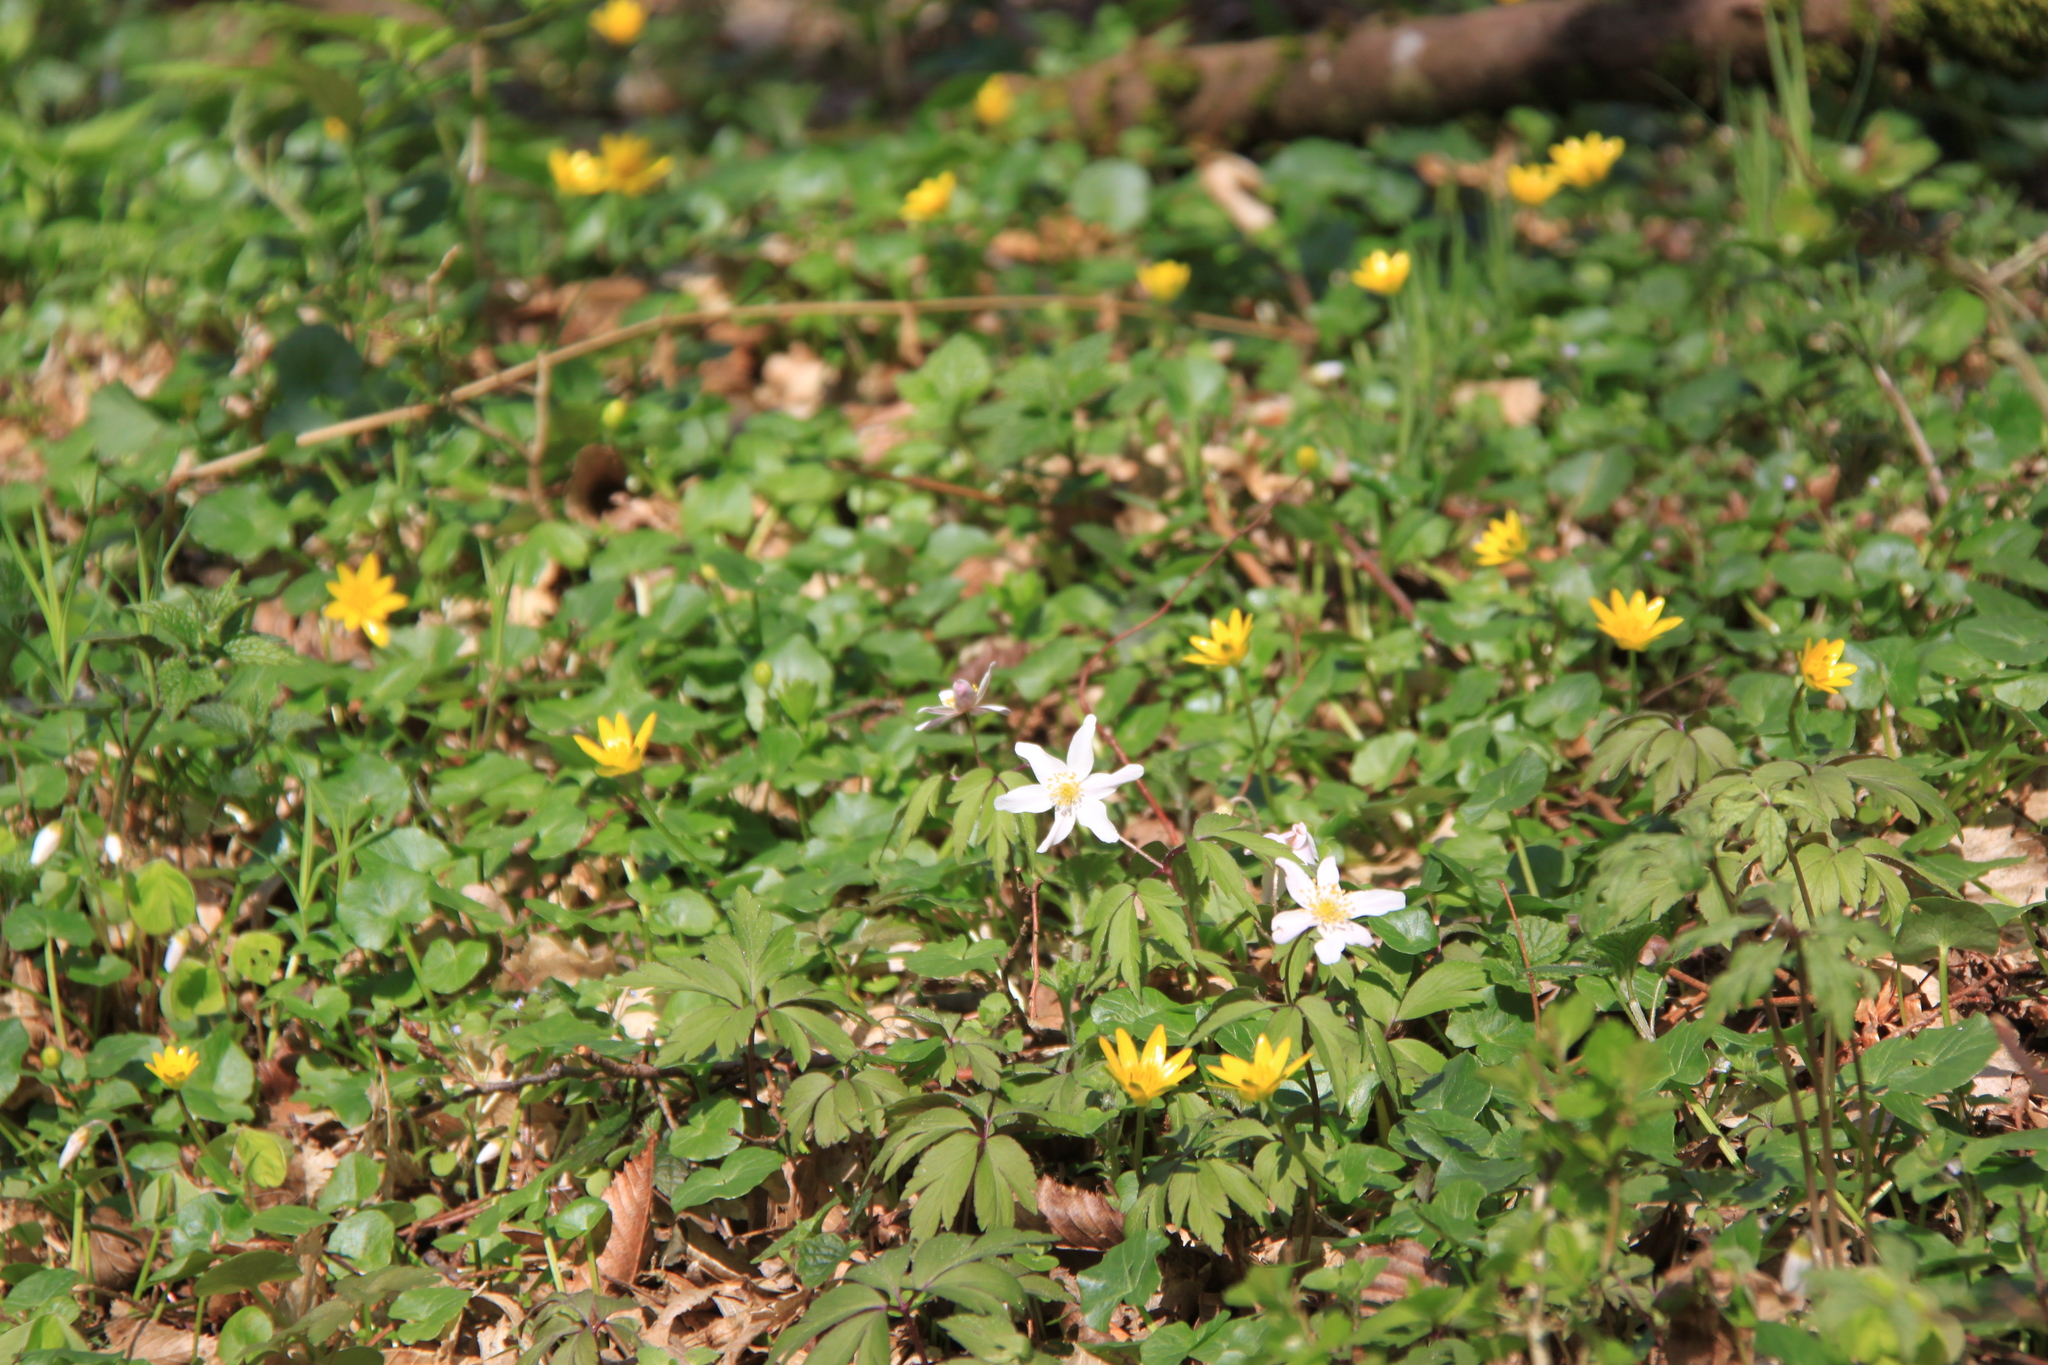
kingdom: Plantae
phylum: Tracheophyta
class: Magnoliopsida
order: Ranunculales
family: Ranunculaceae
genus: Ficaria
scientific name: Ficaria verna
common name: Lesser celandine
